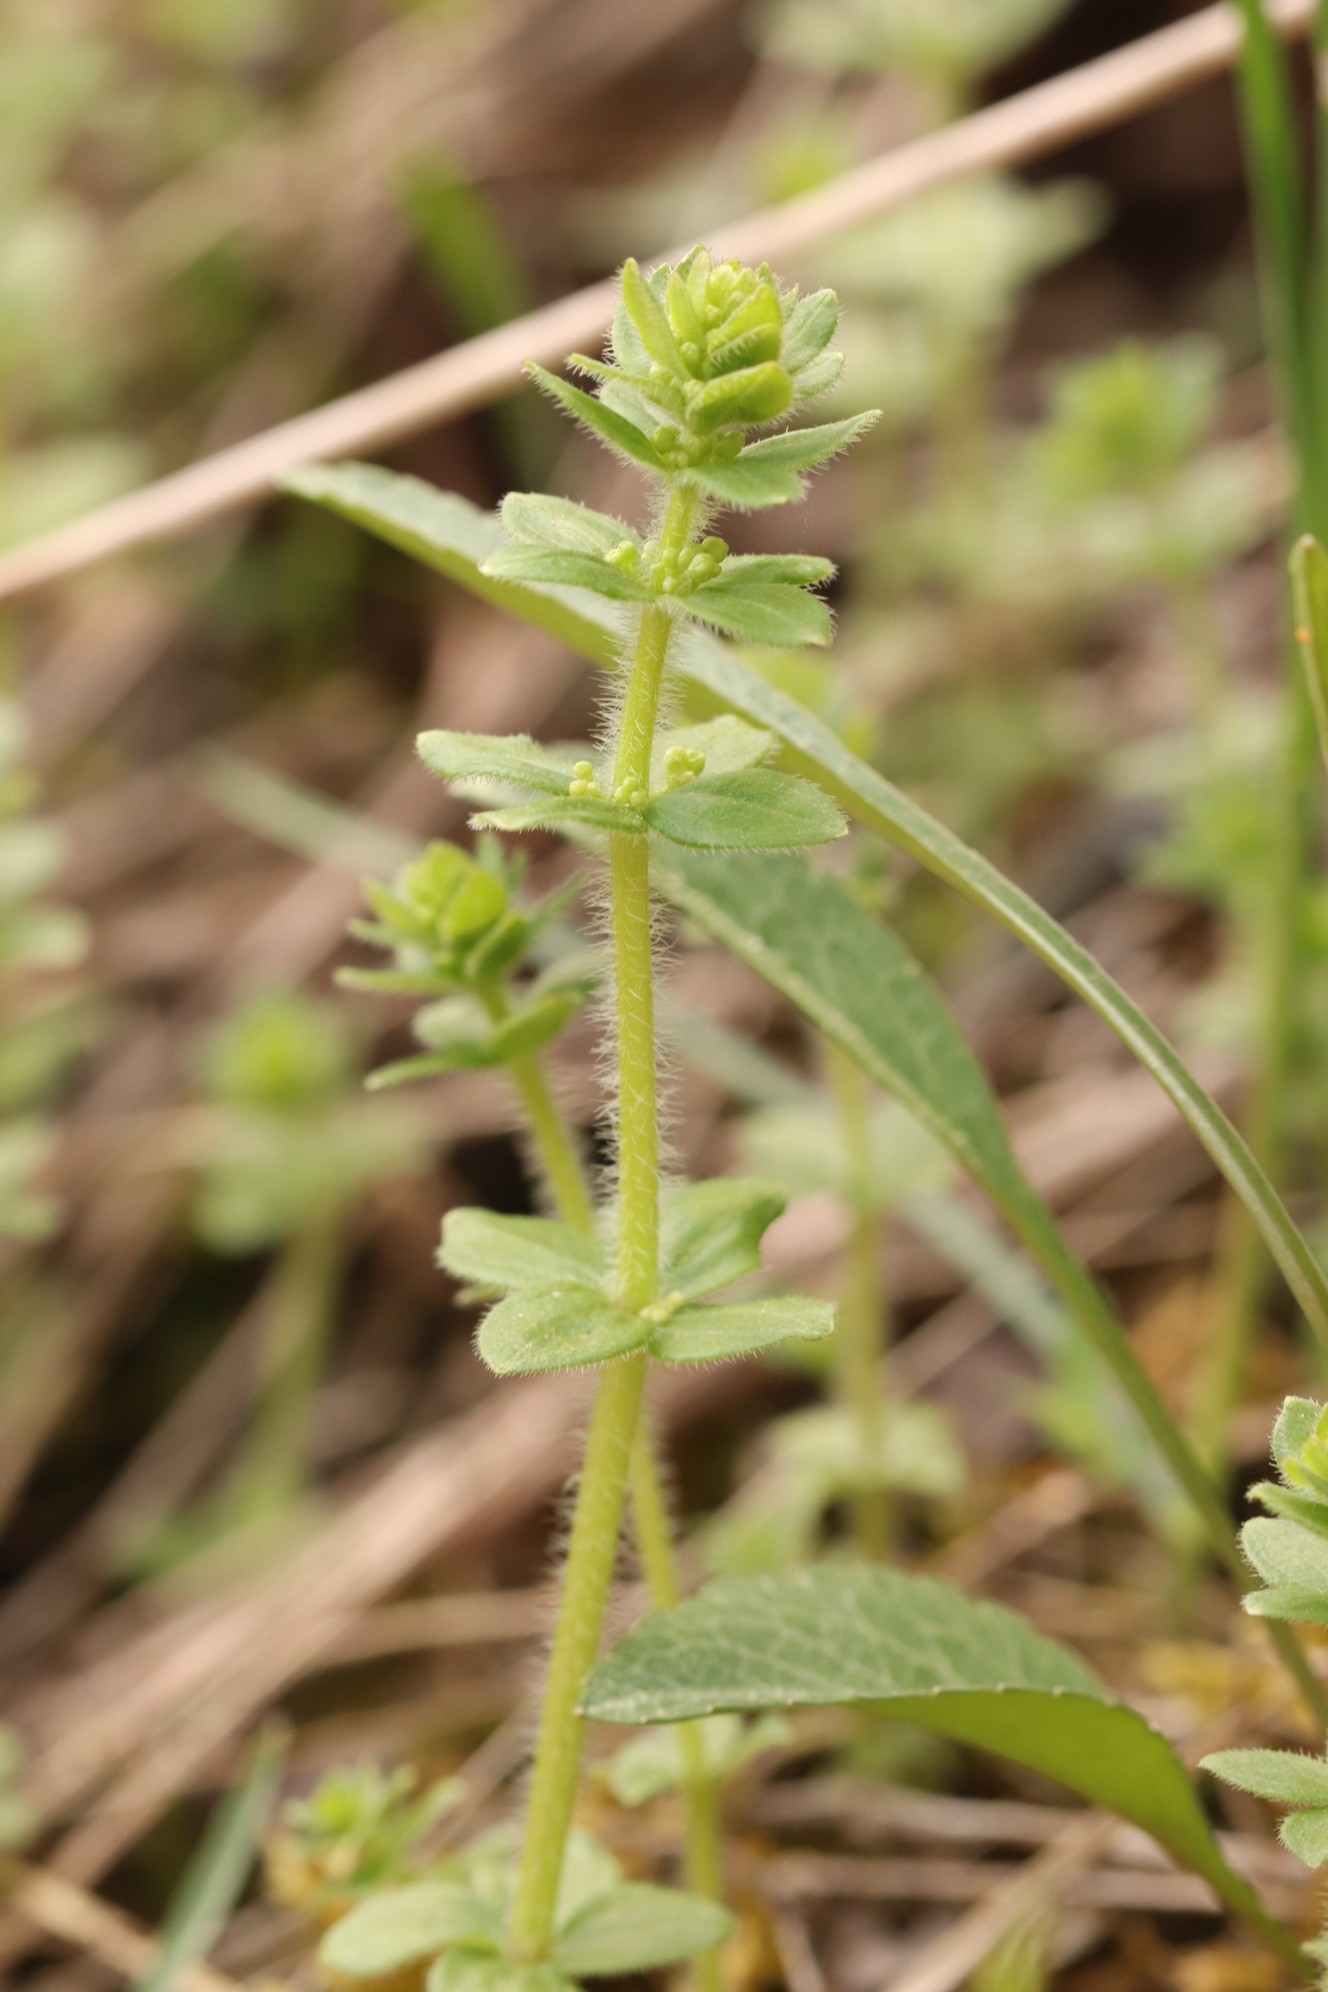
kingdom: Plantae
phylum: Tracheophyta
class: Magnoliopsida
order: Gentianales
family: Rubiaceae
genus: Cruciata
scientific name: Cruciata glabra
